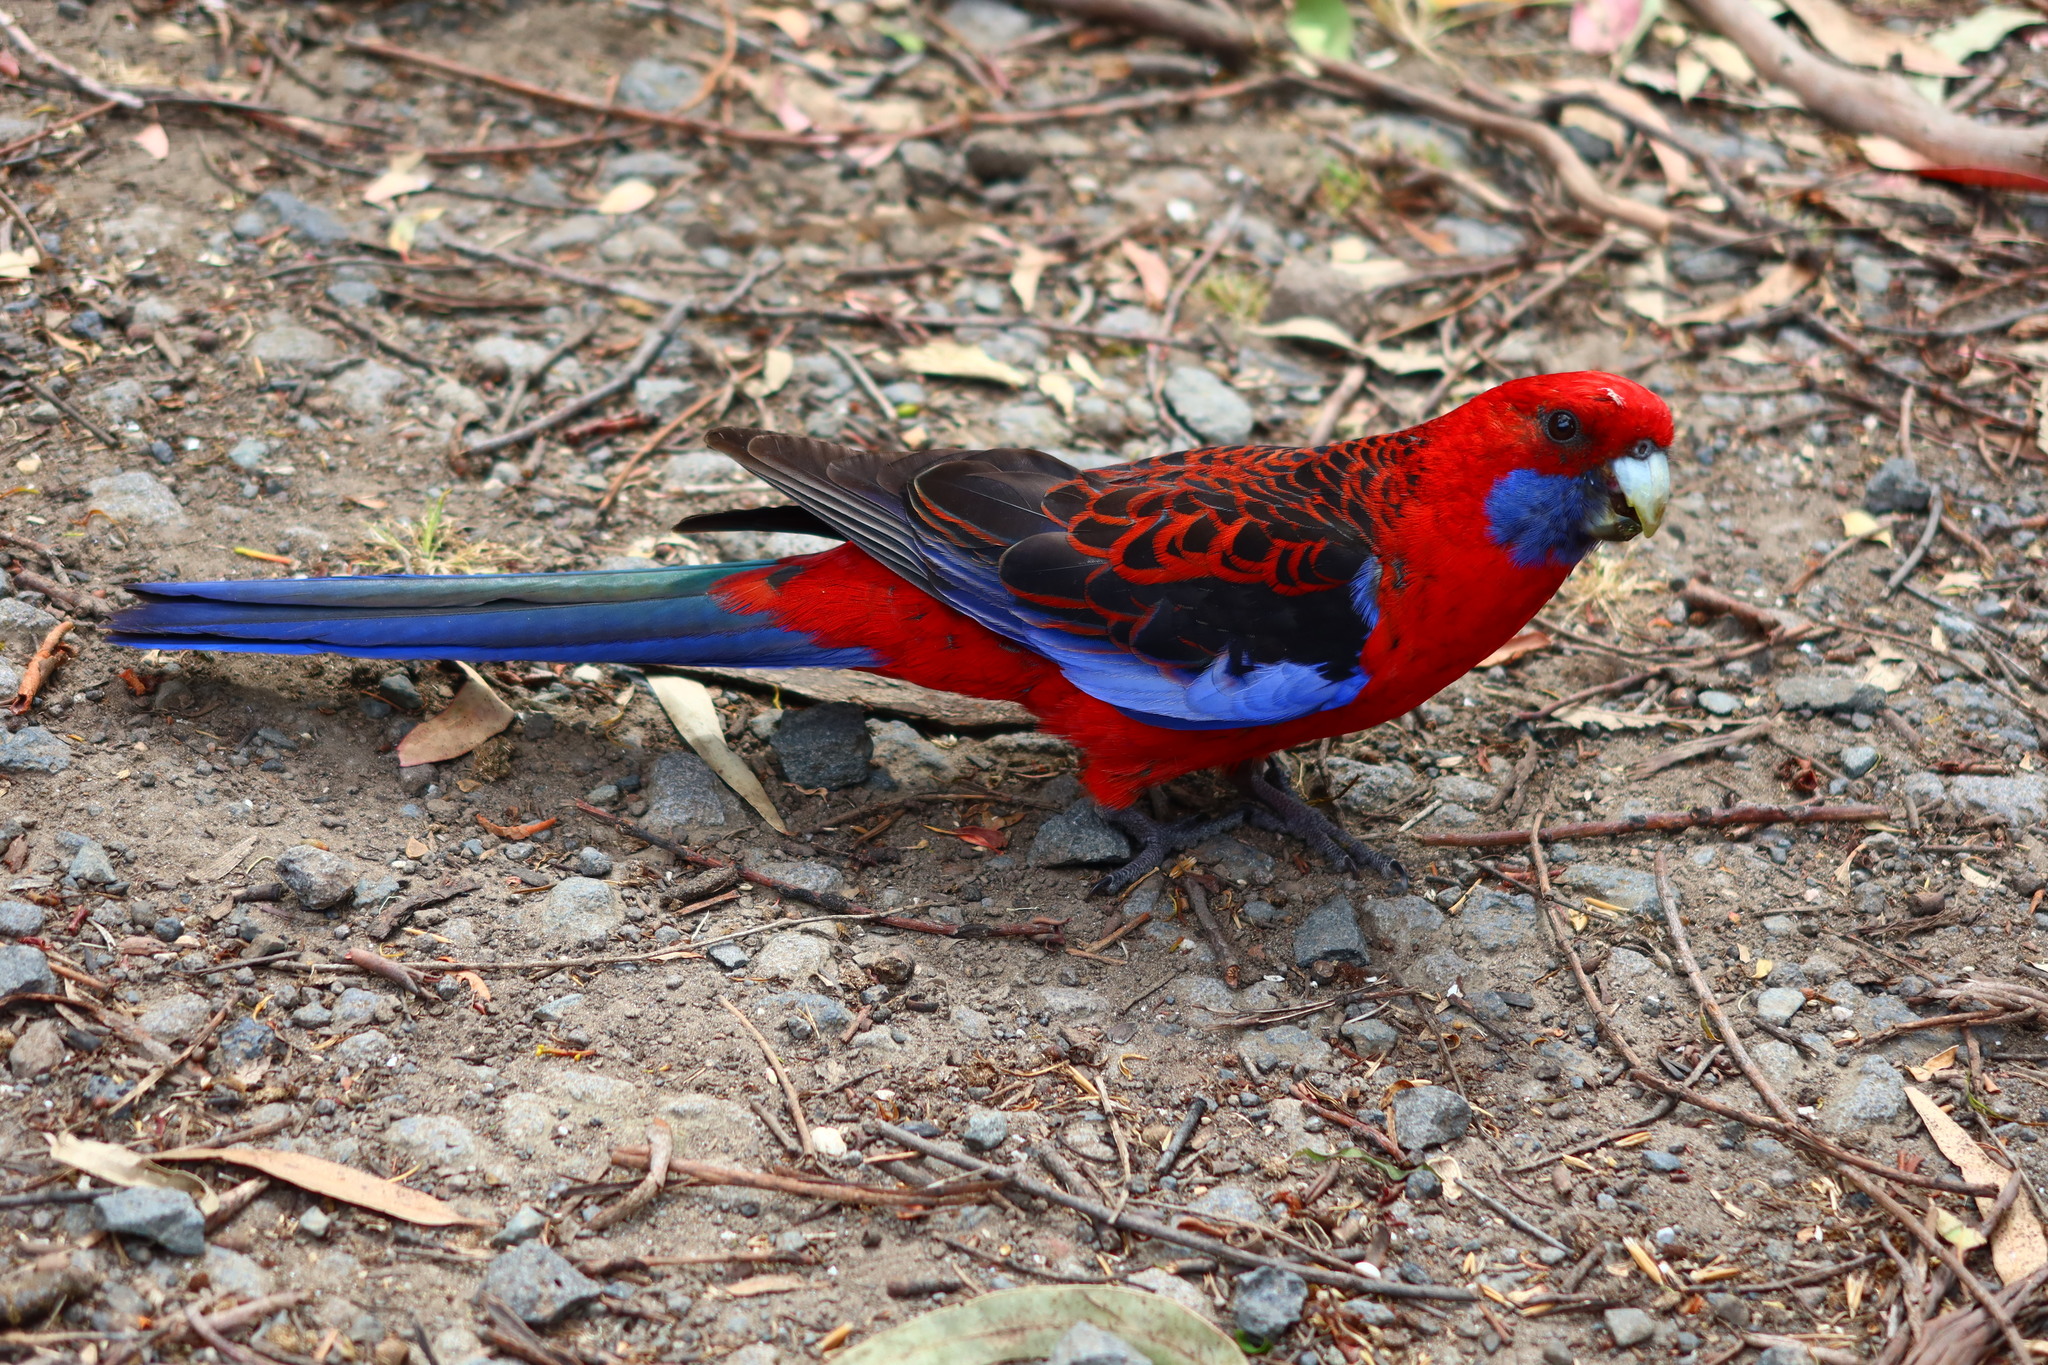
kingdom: Animalia
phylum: Chordata
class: Aves
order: Psittaciformes
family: Psittacidae
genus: Platycercus
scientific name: Platycercus elegans
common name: Crimson rosella
